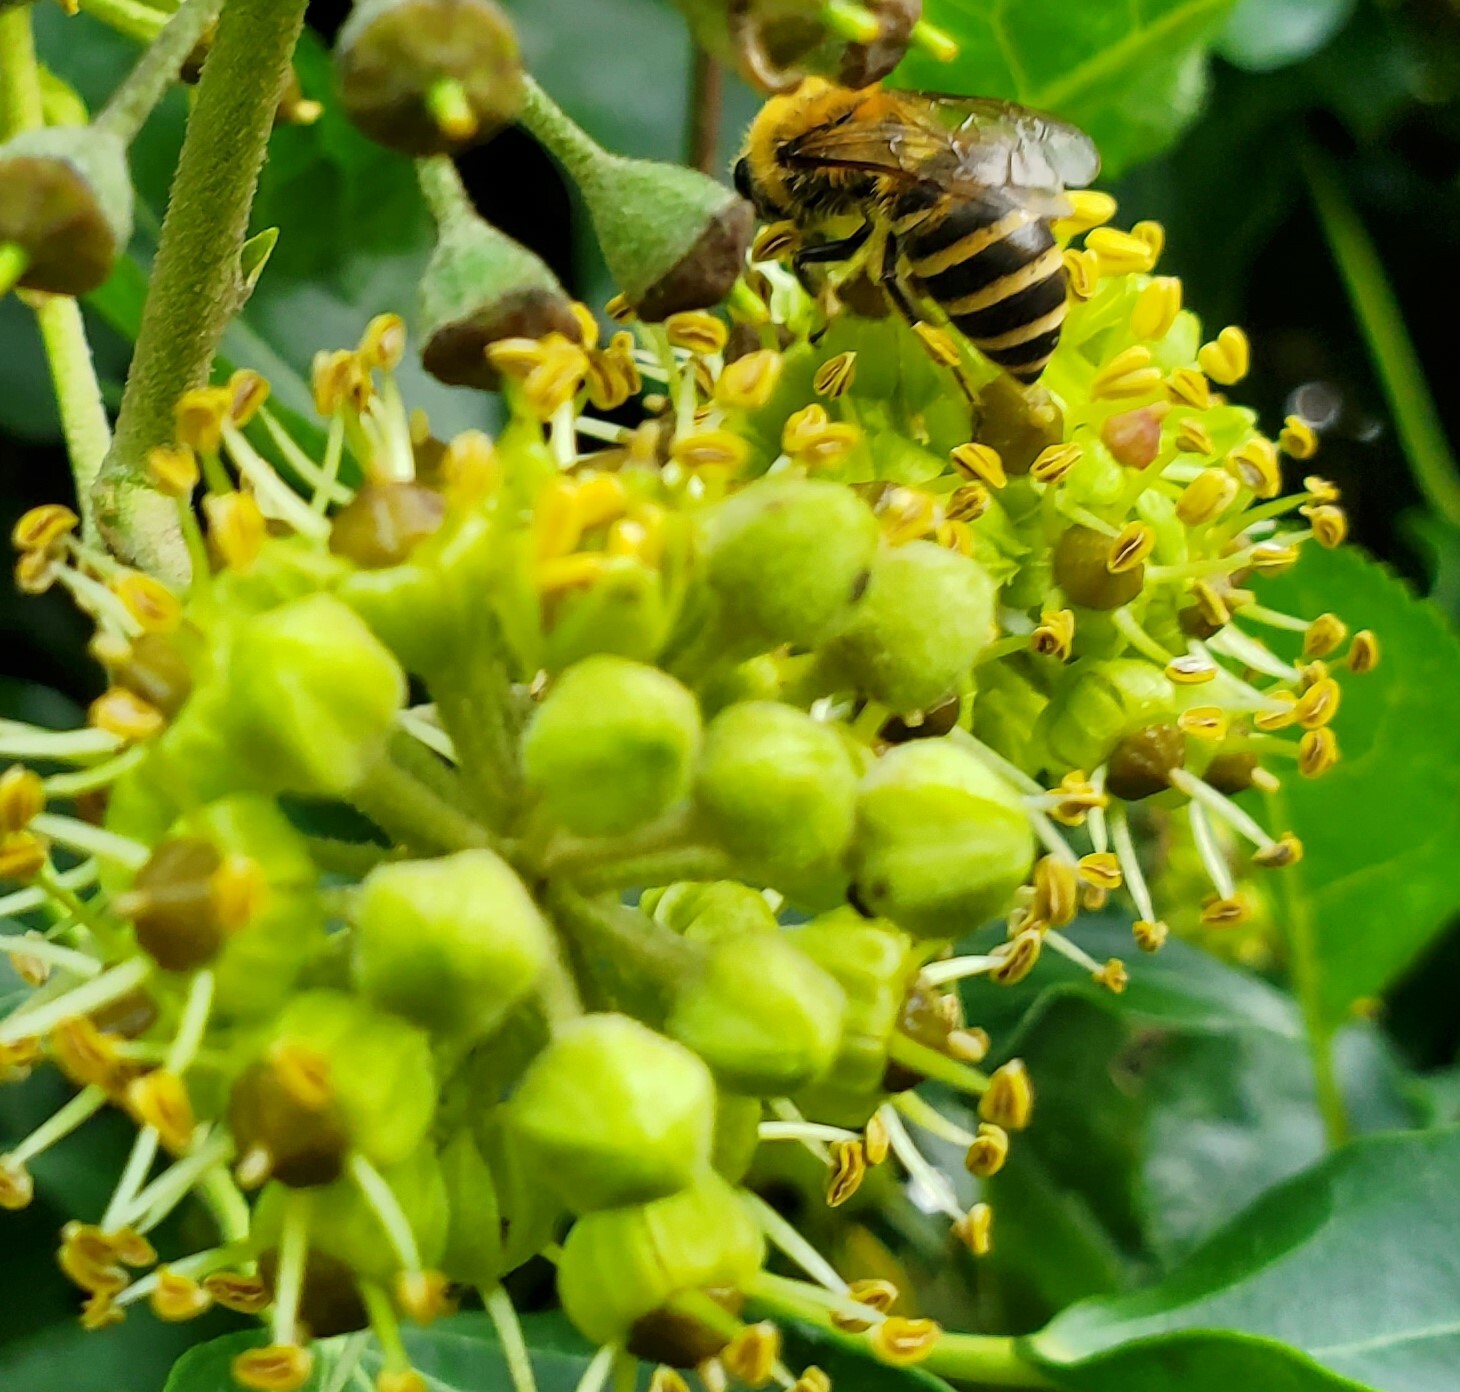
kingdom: Animalia
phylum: Arthropoda
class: Insecta
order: Hymenoptera
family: Colletidae
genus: Colletes
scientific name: Colletes hederae
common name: Ivy bee
